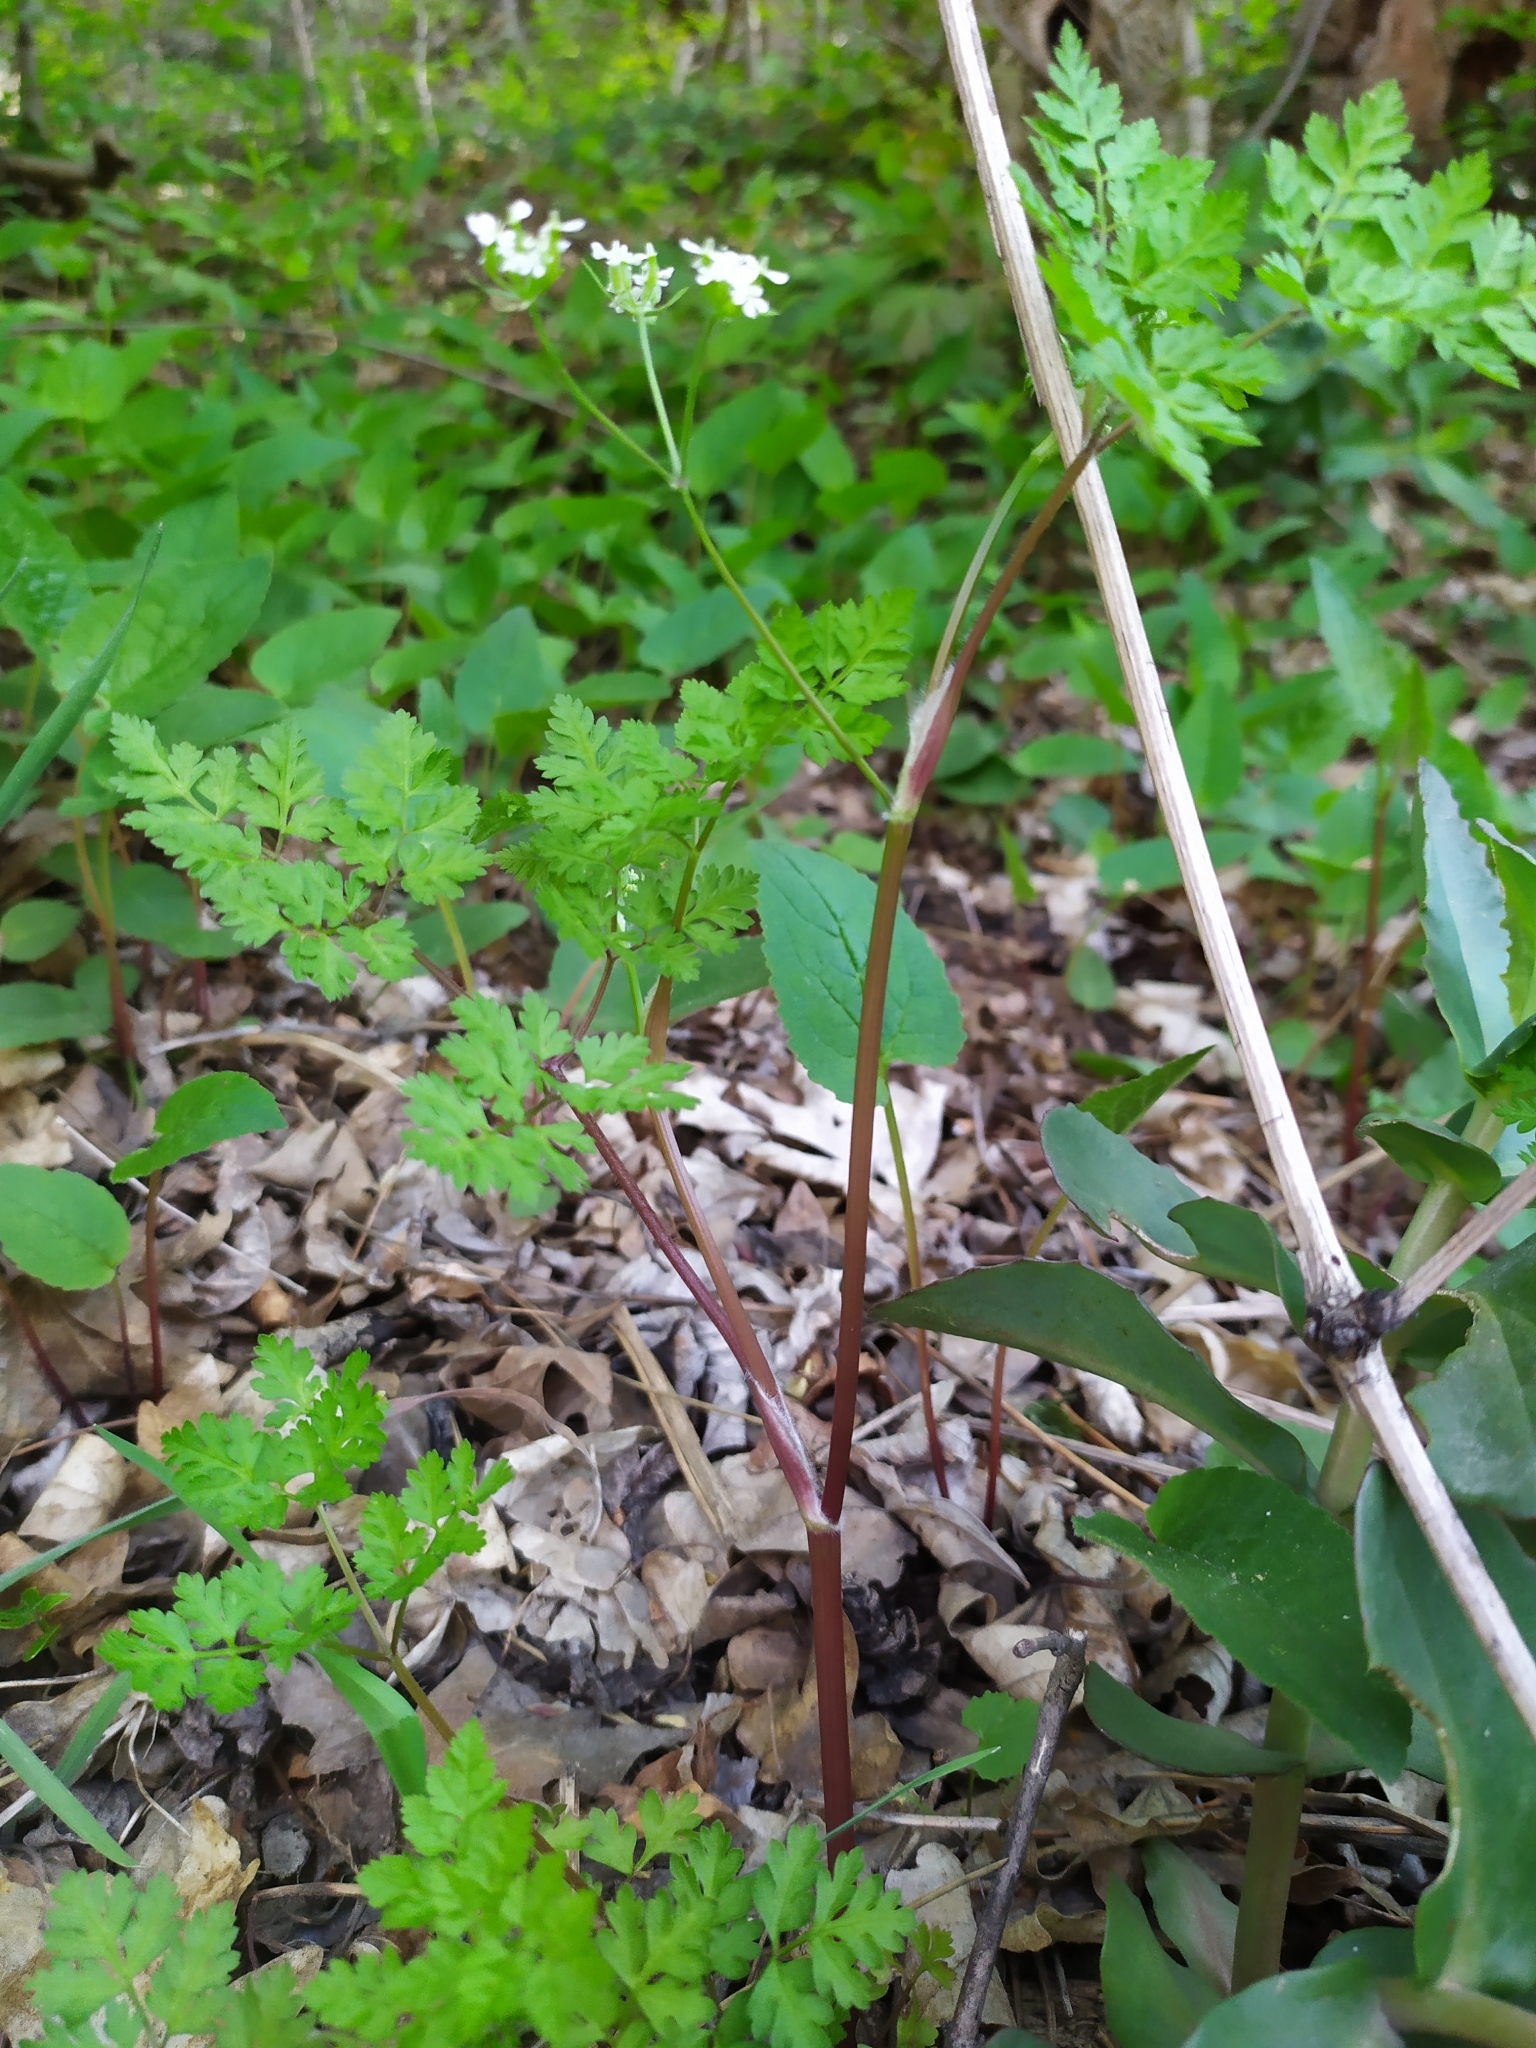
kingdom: Plantae
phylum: Tracheophyta
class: Magnoliopsida
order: Apiales
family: Apiaceae
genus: Anthriscus
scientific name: Anthriscus cerefolium
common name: Garden chervil
